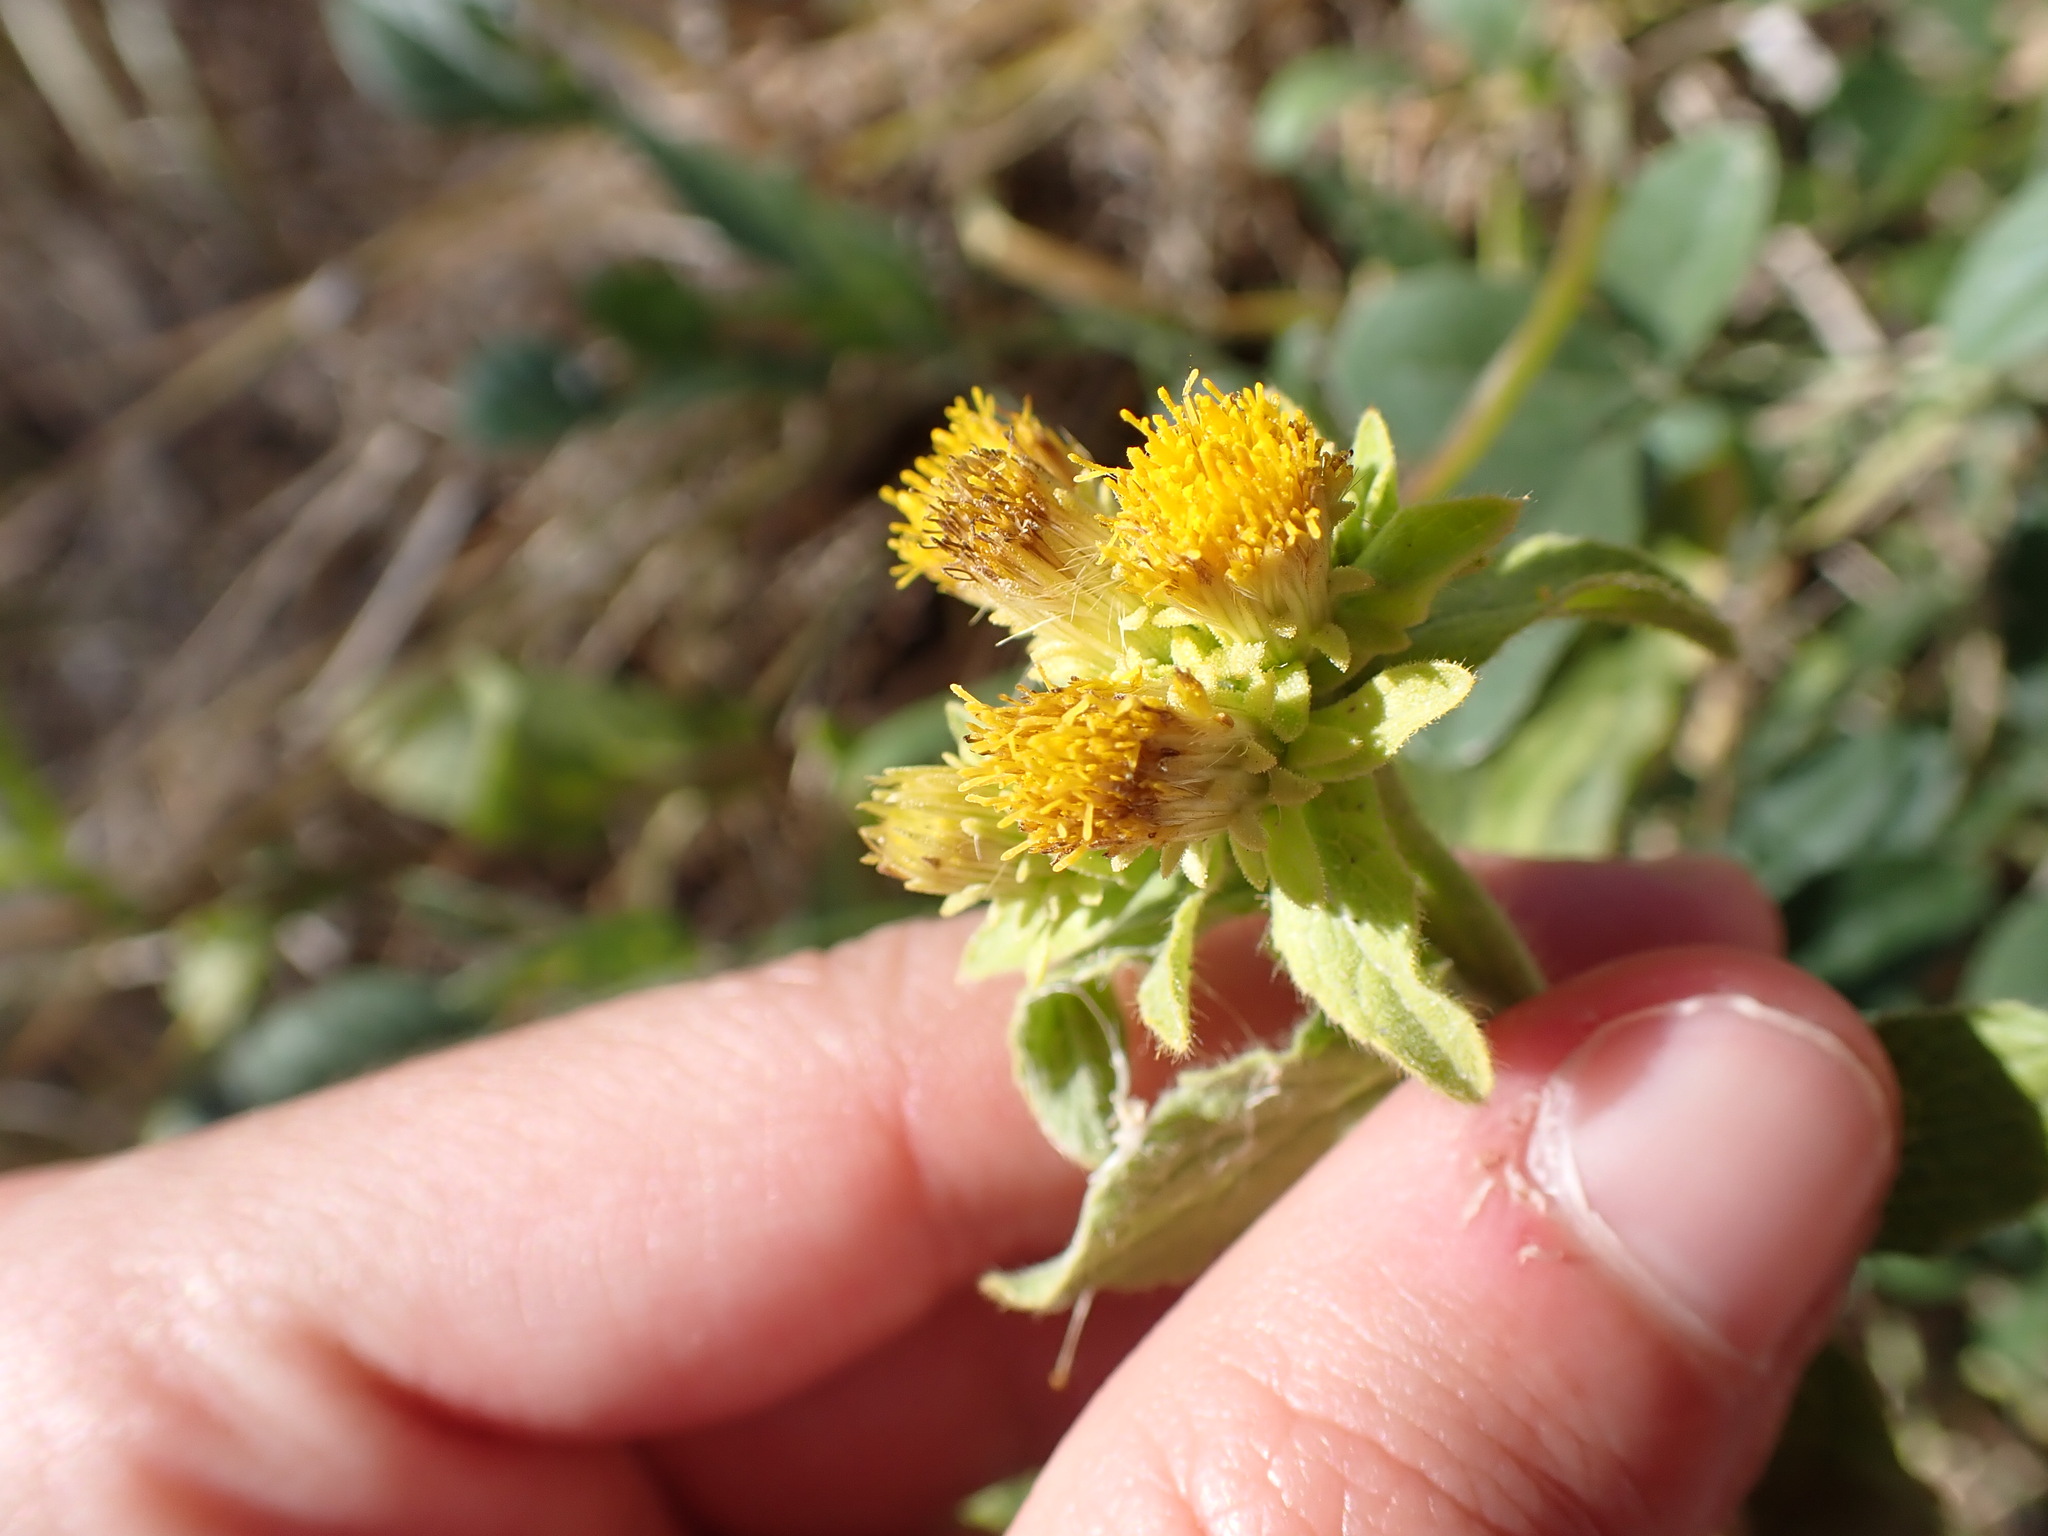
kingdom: Plantae
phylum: Tracheophyta
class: Magnoliopsida
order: Asterales
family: Asteraceae
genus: Pentanema
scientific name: Pentanema squarrosum
